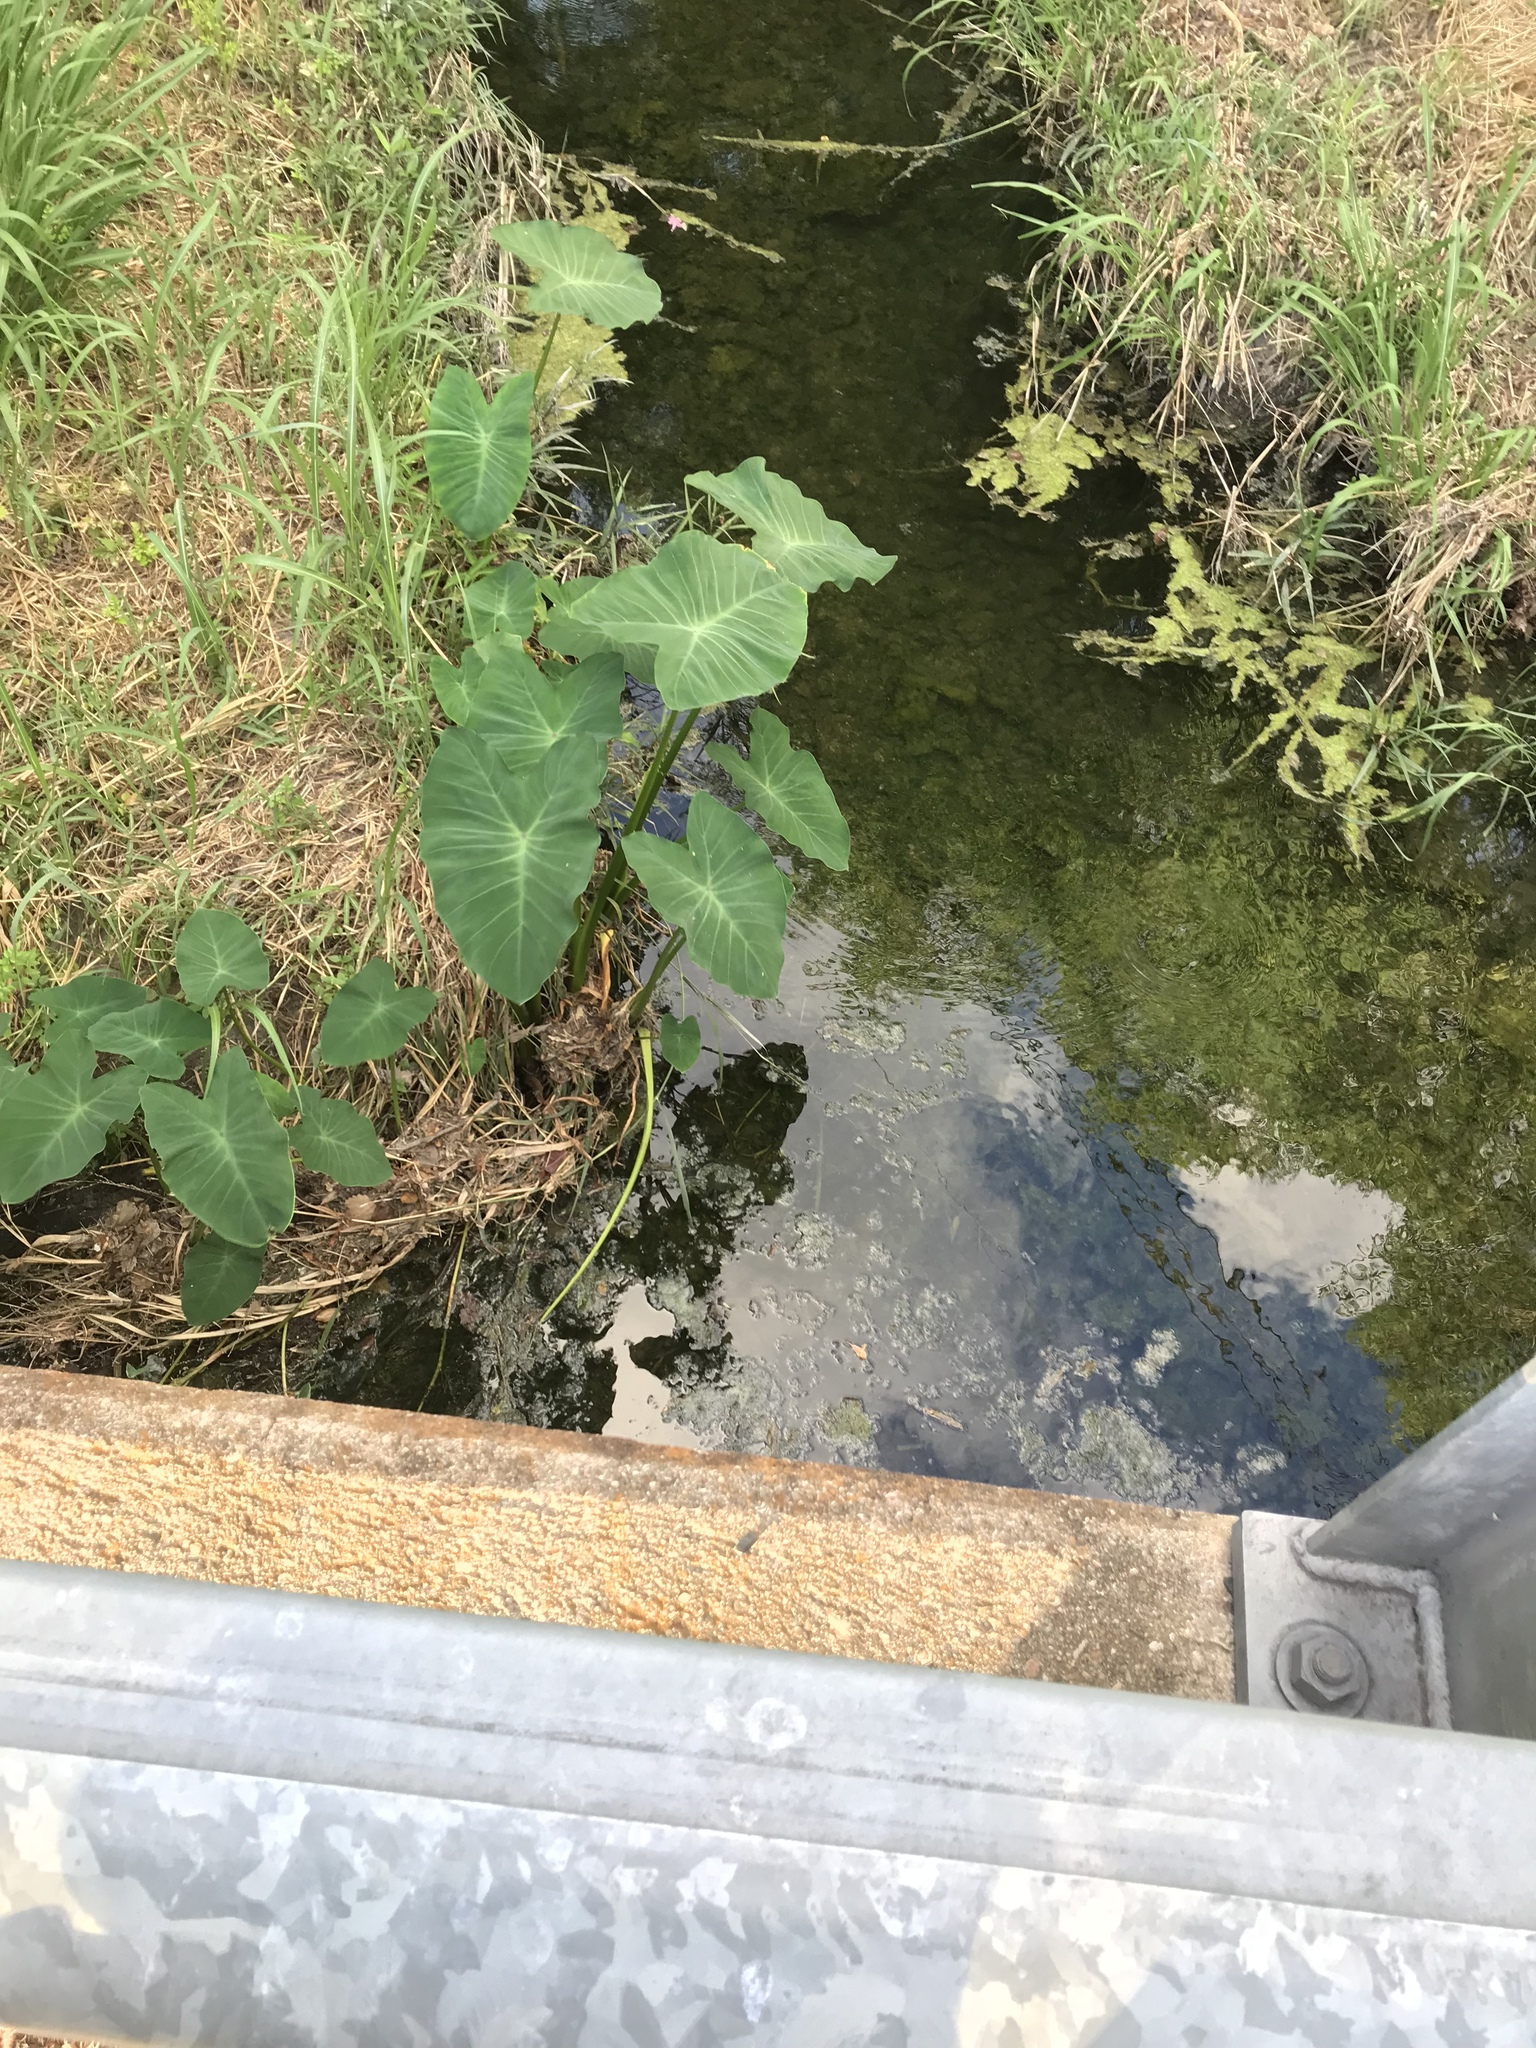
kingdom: Plantae
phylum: Tracheophyta
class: Liliopsida
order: Alismatales
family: Araceae
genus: Colocasia
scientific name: Colocasia esculenta
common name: Taro
